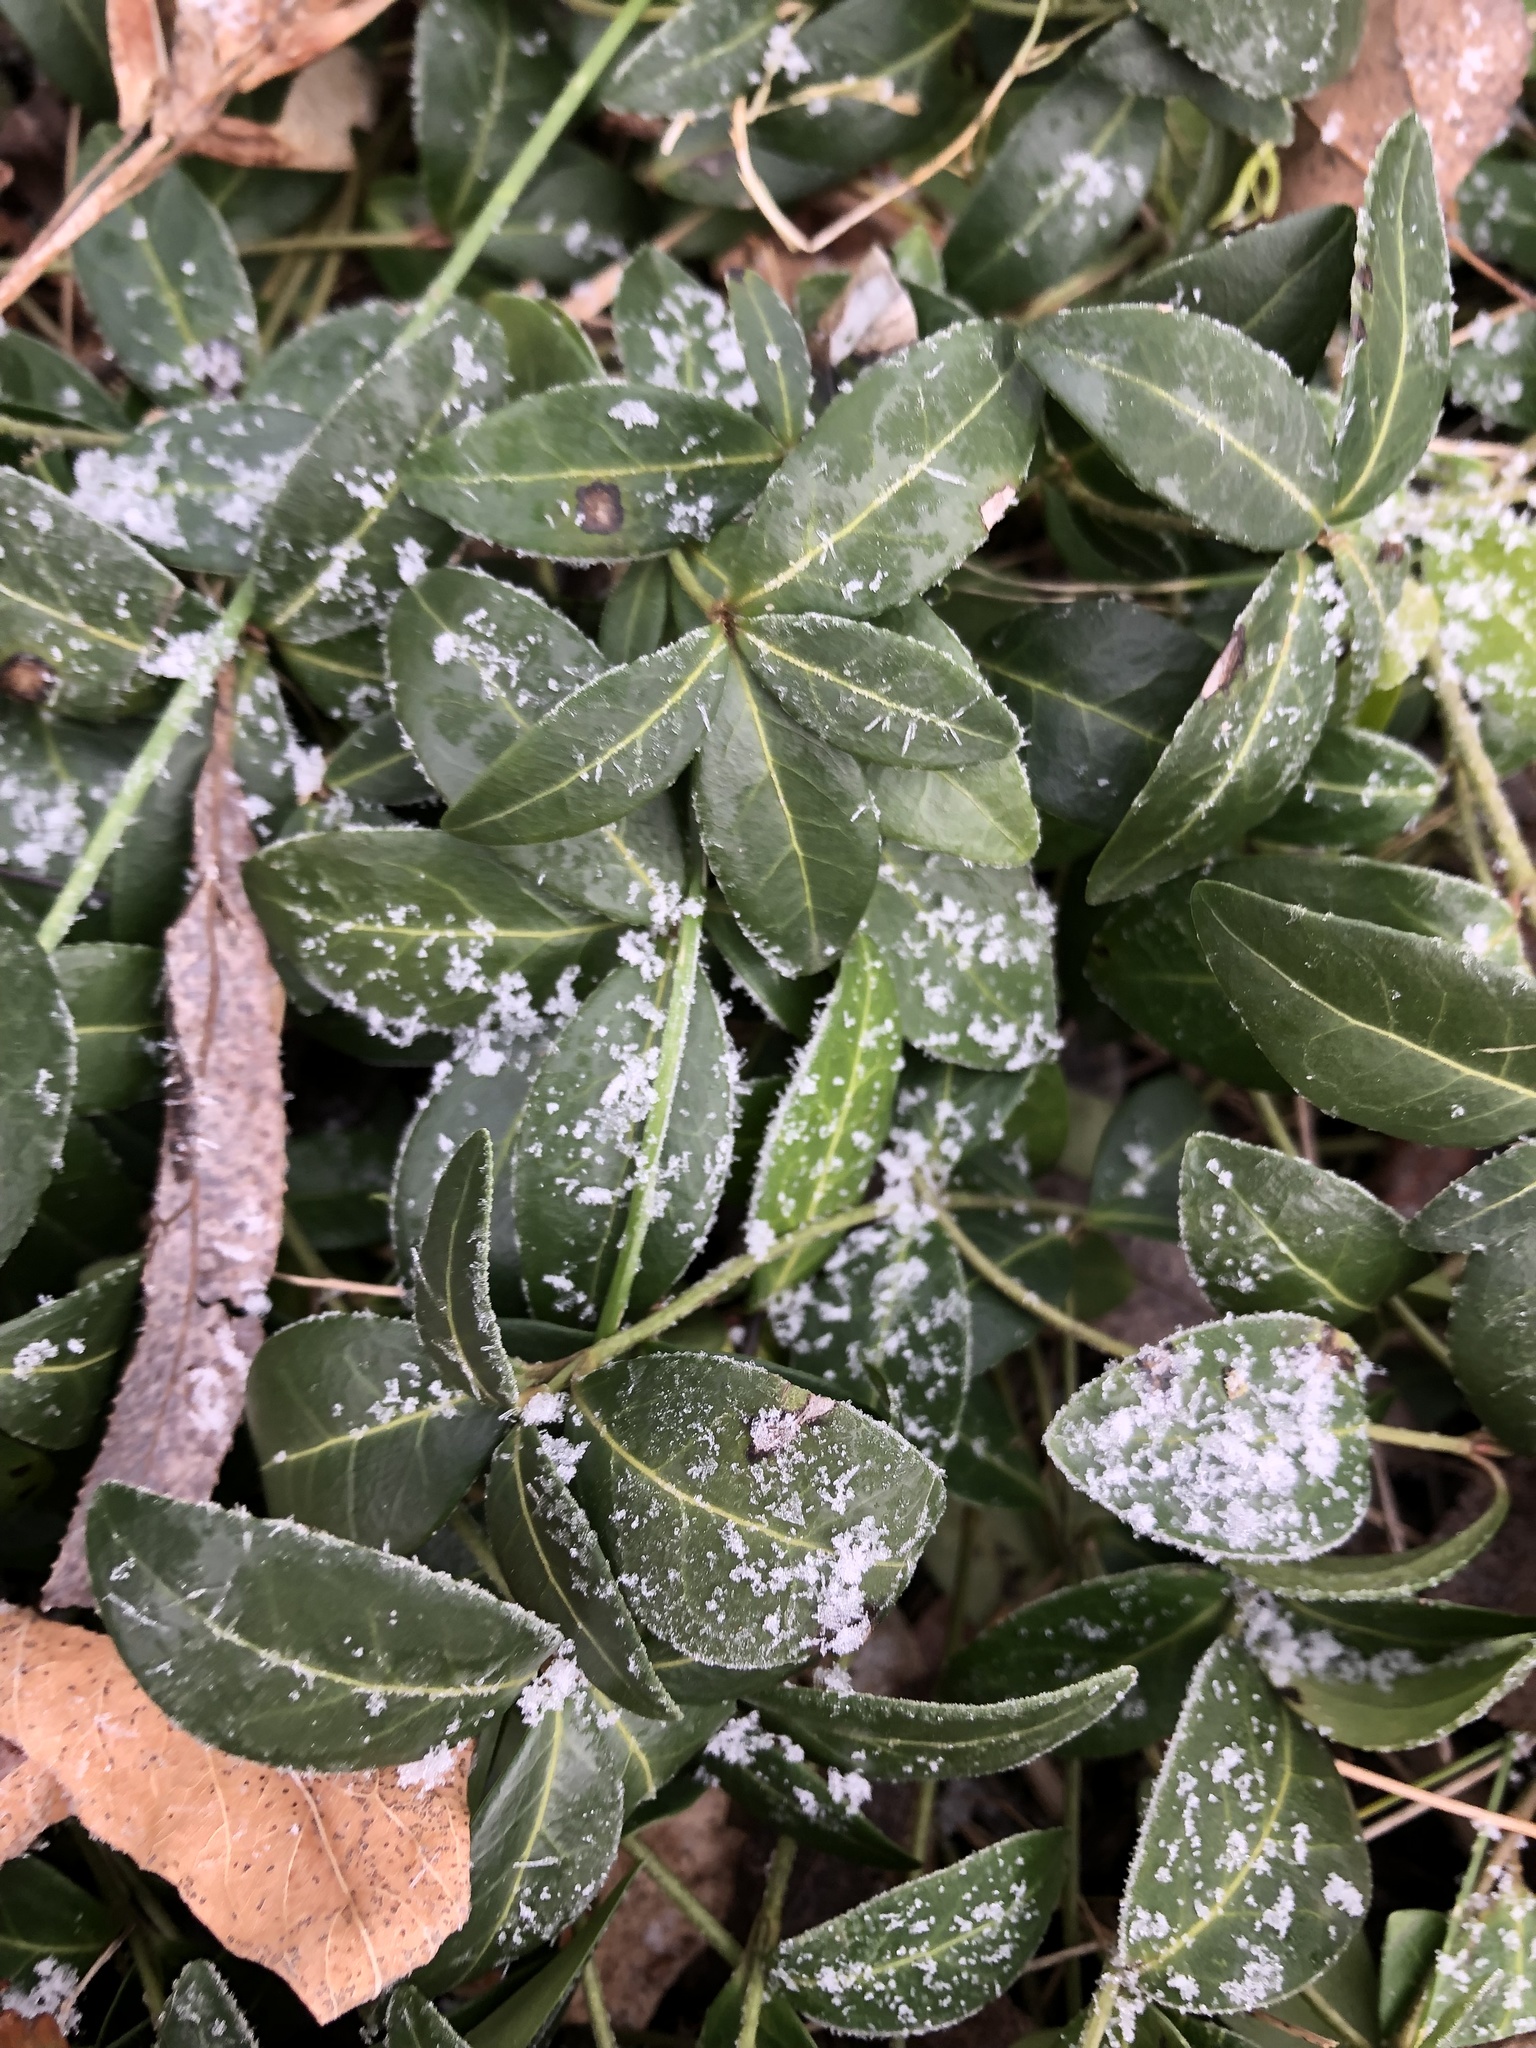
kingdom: Plantae
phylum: Tracheophyta
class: Magnoliopsida
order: Gentianales
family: Apocynaceae
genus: Vinca
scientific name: Vinca minor
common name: Lesser periwinkle
